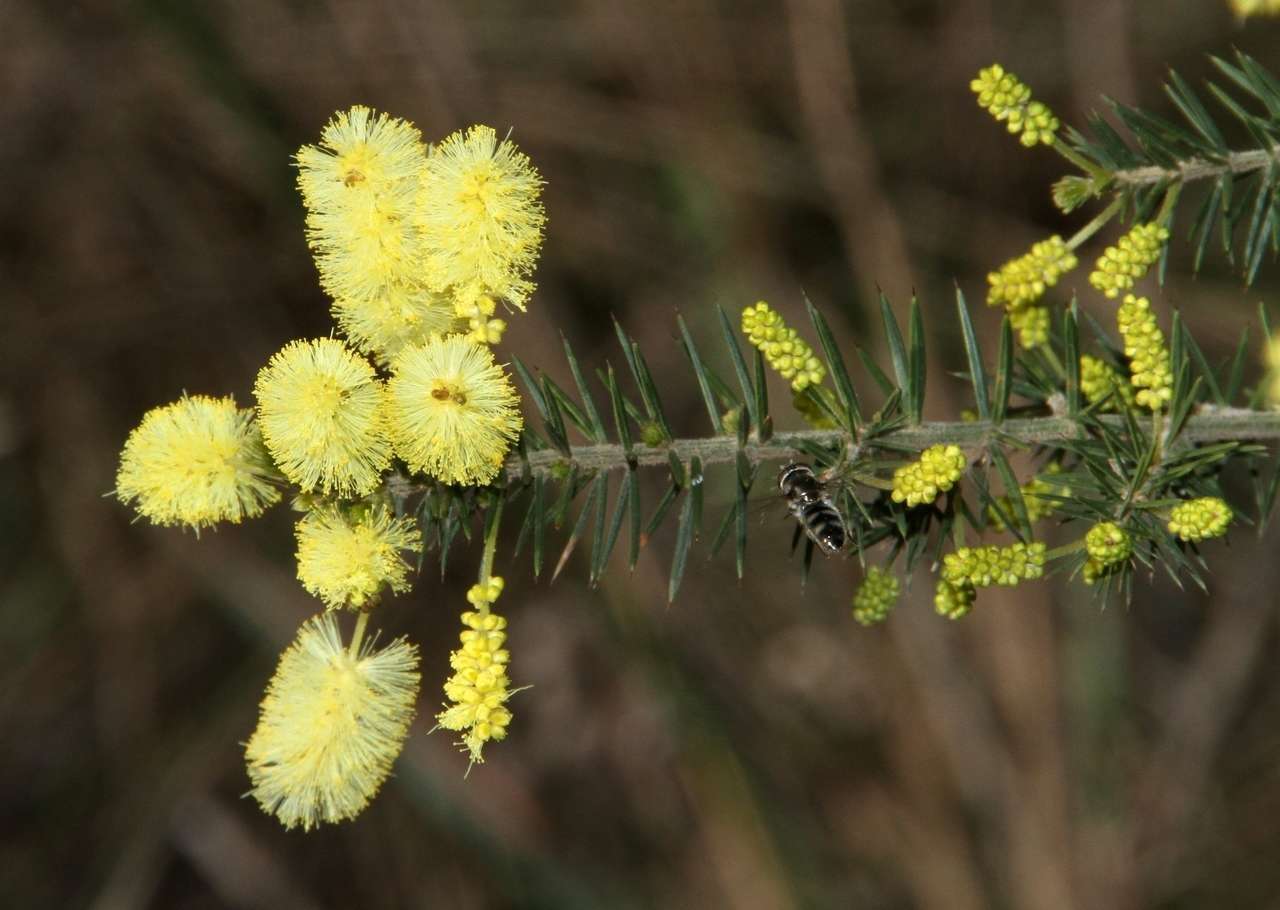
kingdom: Plantae
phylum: Tracheophyta
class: Magnoliopsida
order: Fabales
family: Fabaceae
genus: Acacia
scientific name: Acacia verticillata
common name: Prickly moses
